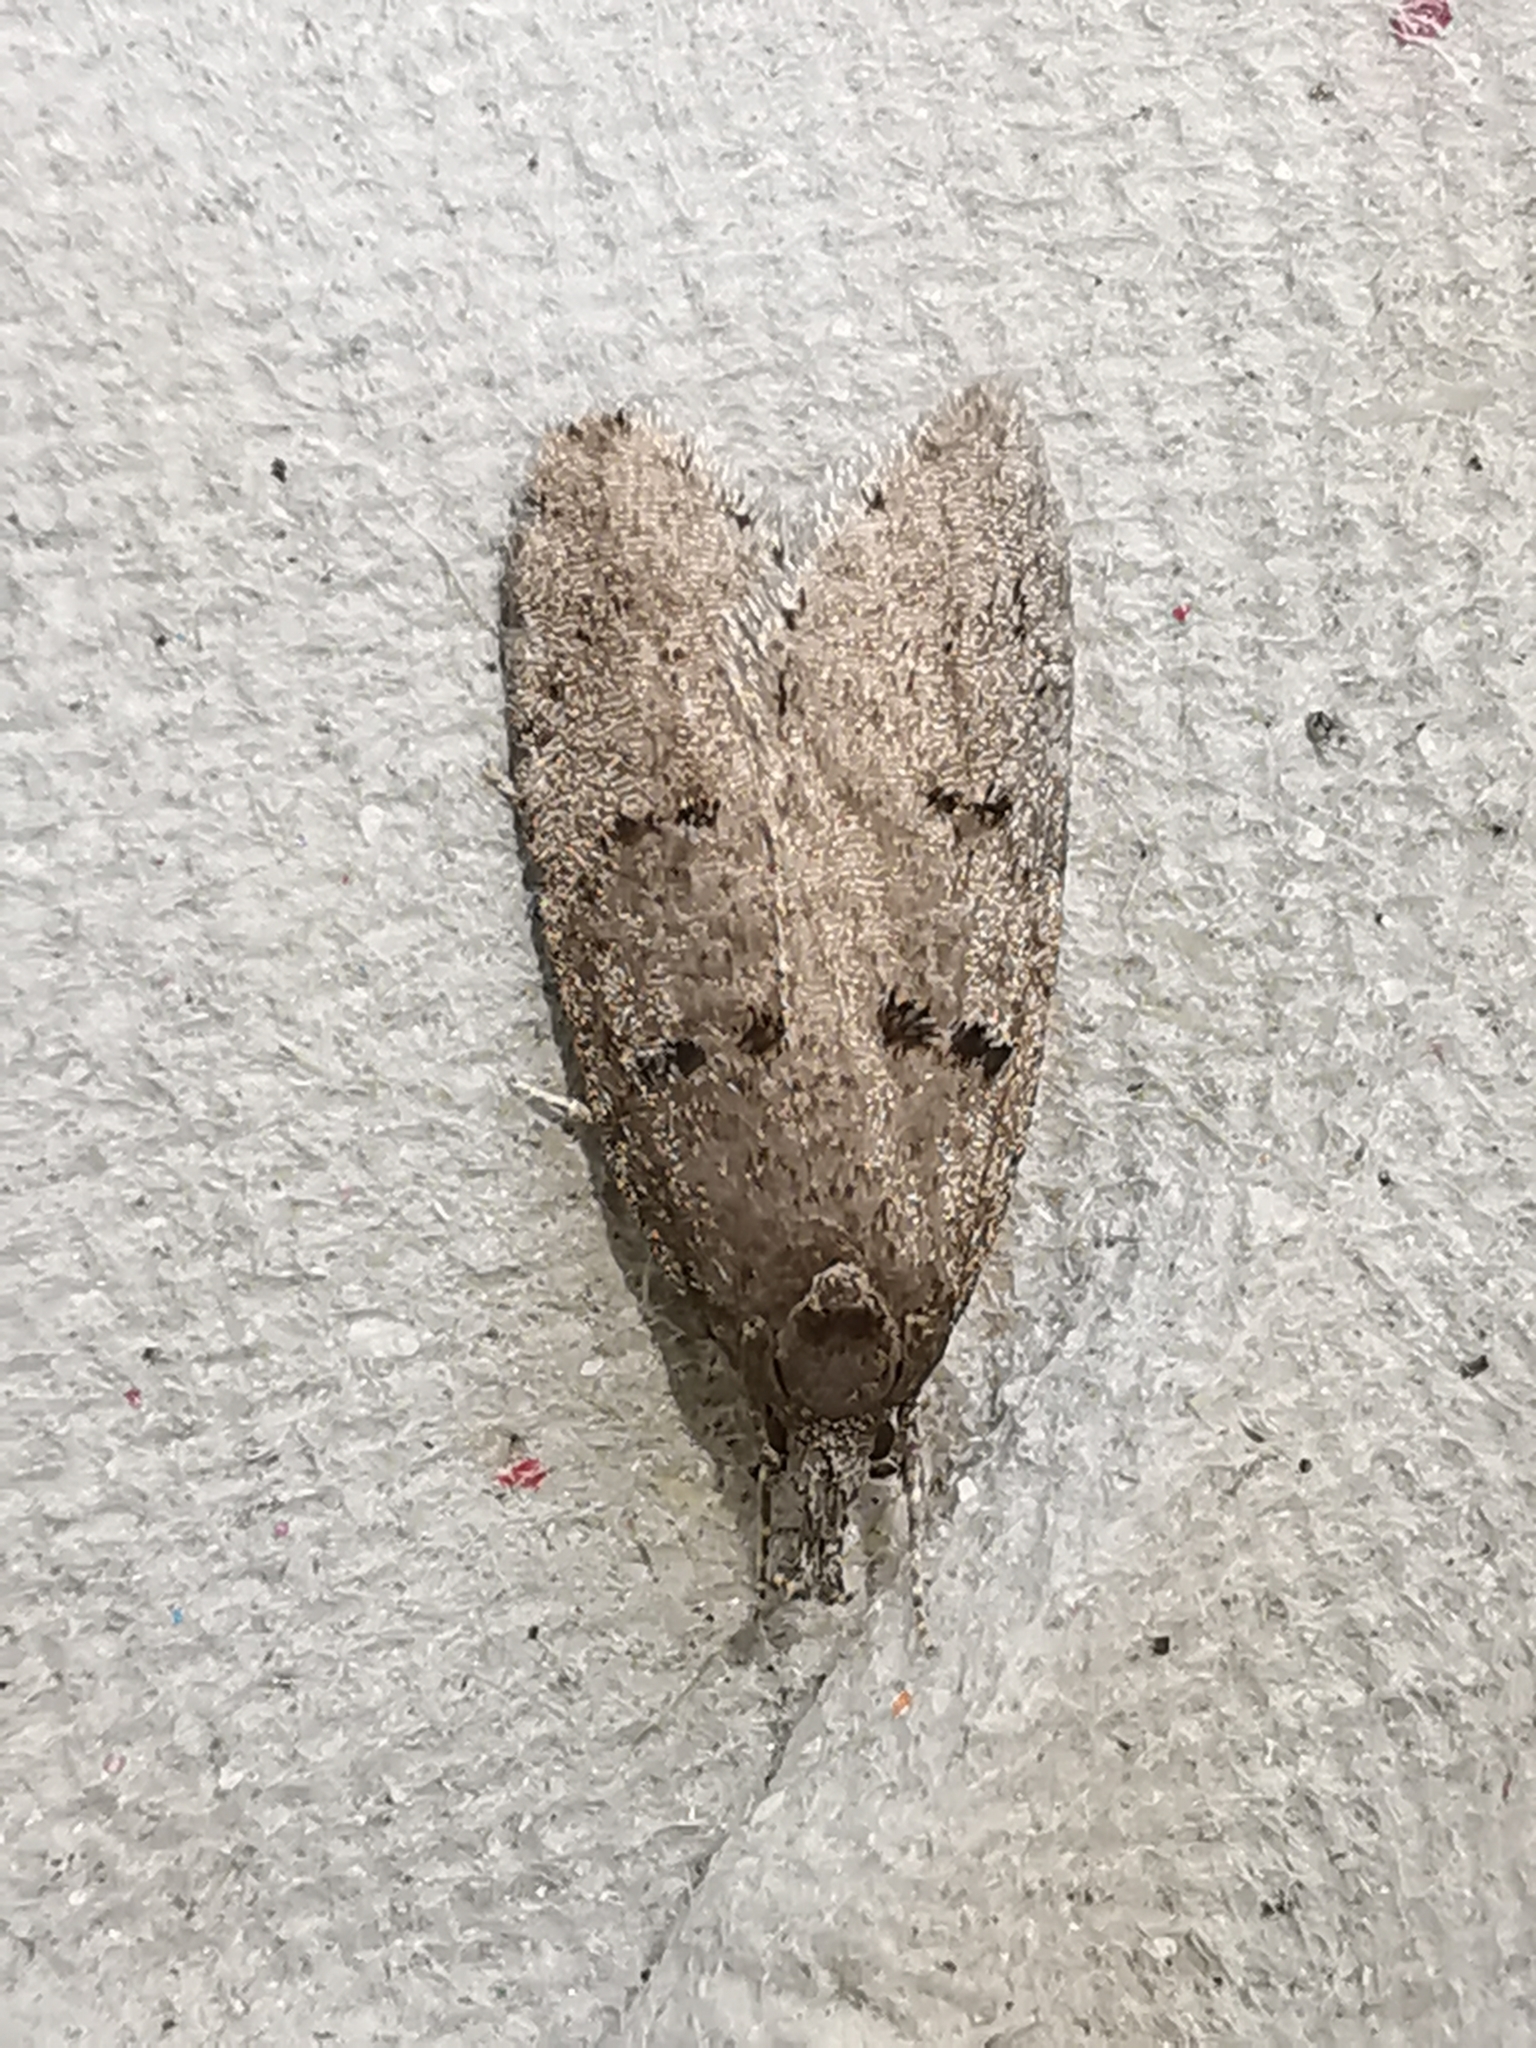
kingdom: Animalia
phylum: Arthropoda
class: Insecta
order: Lepidoptera
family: Oecophoridae
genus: Luquetia
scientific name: Luquetia lobella
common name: Sloe flat-body
